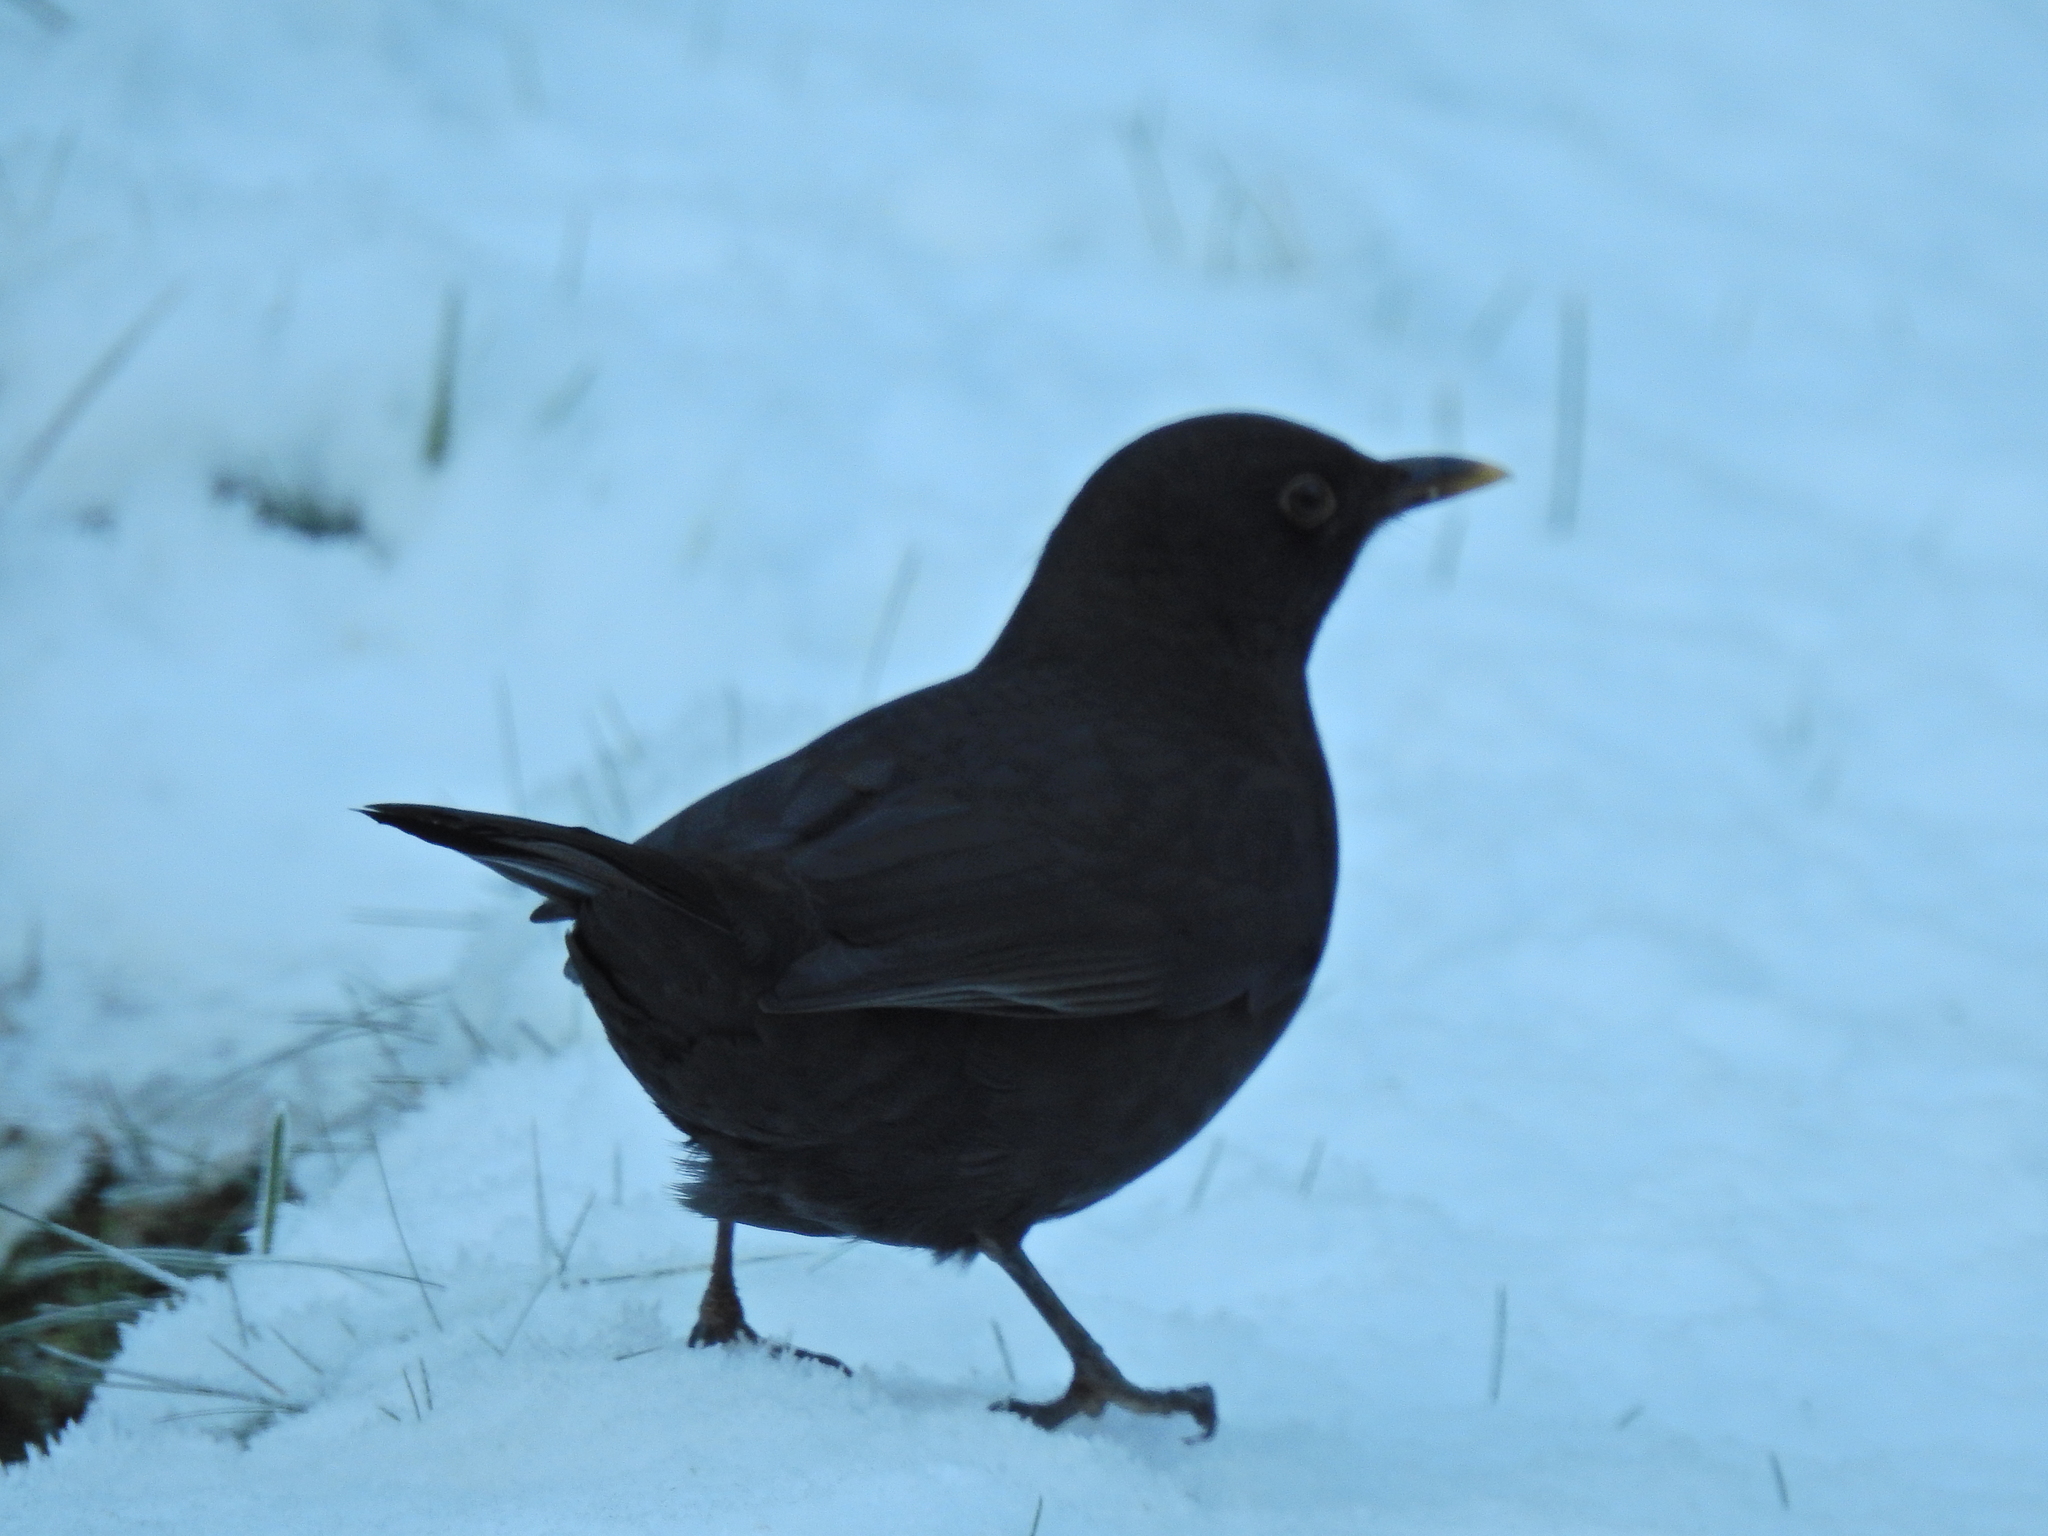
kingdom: Animalia
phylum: Chordata
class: Aves
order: Passeriformes
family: Turdidae
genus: Turdus
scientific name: Turdus merula
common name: Common blackbird
